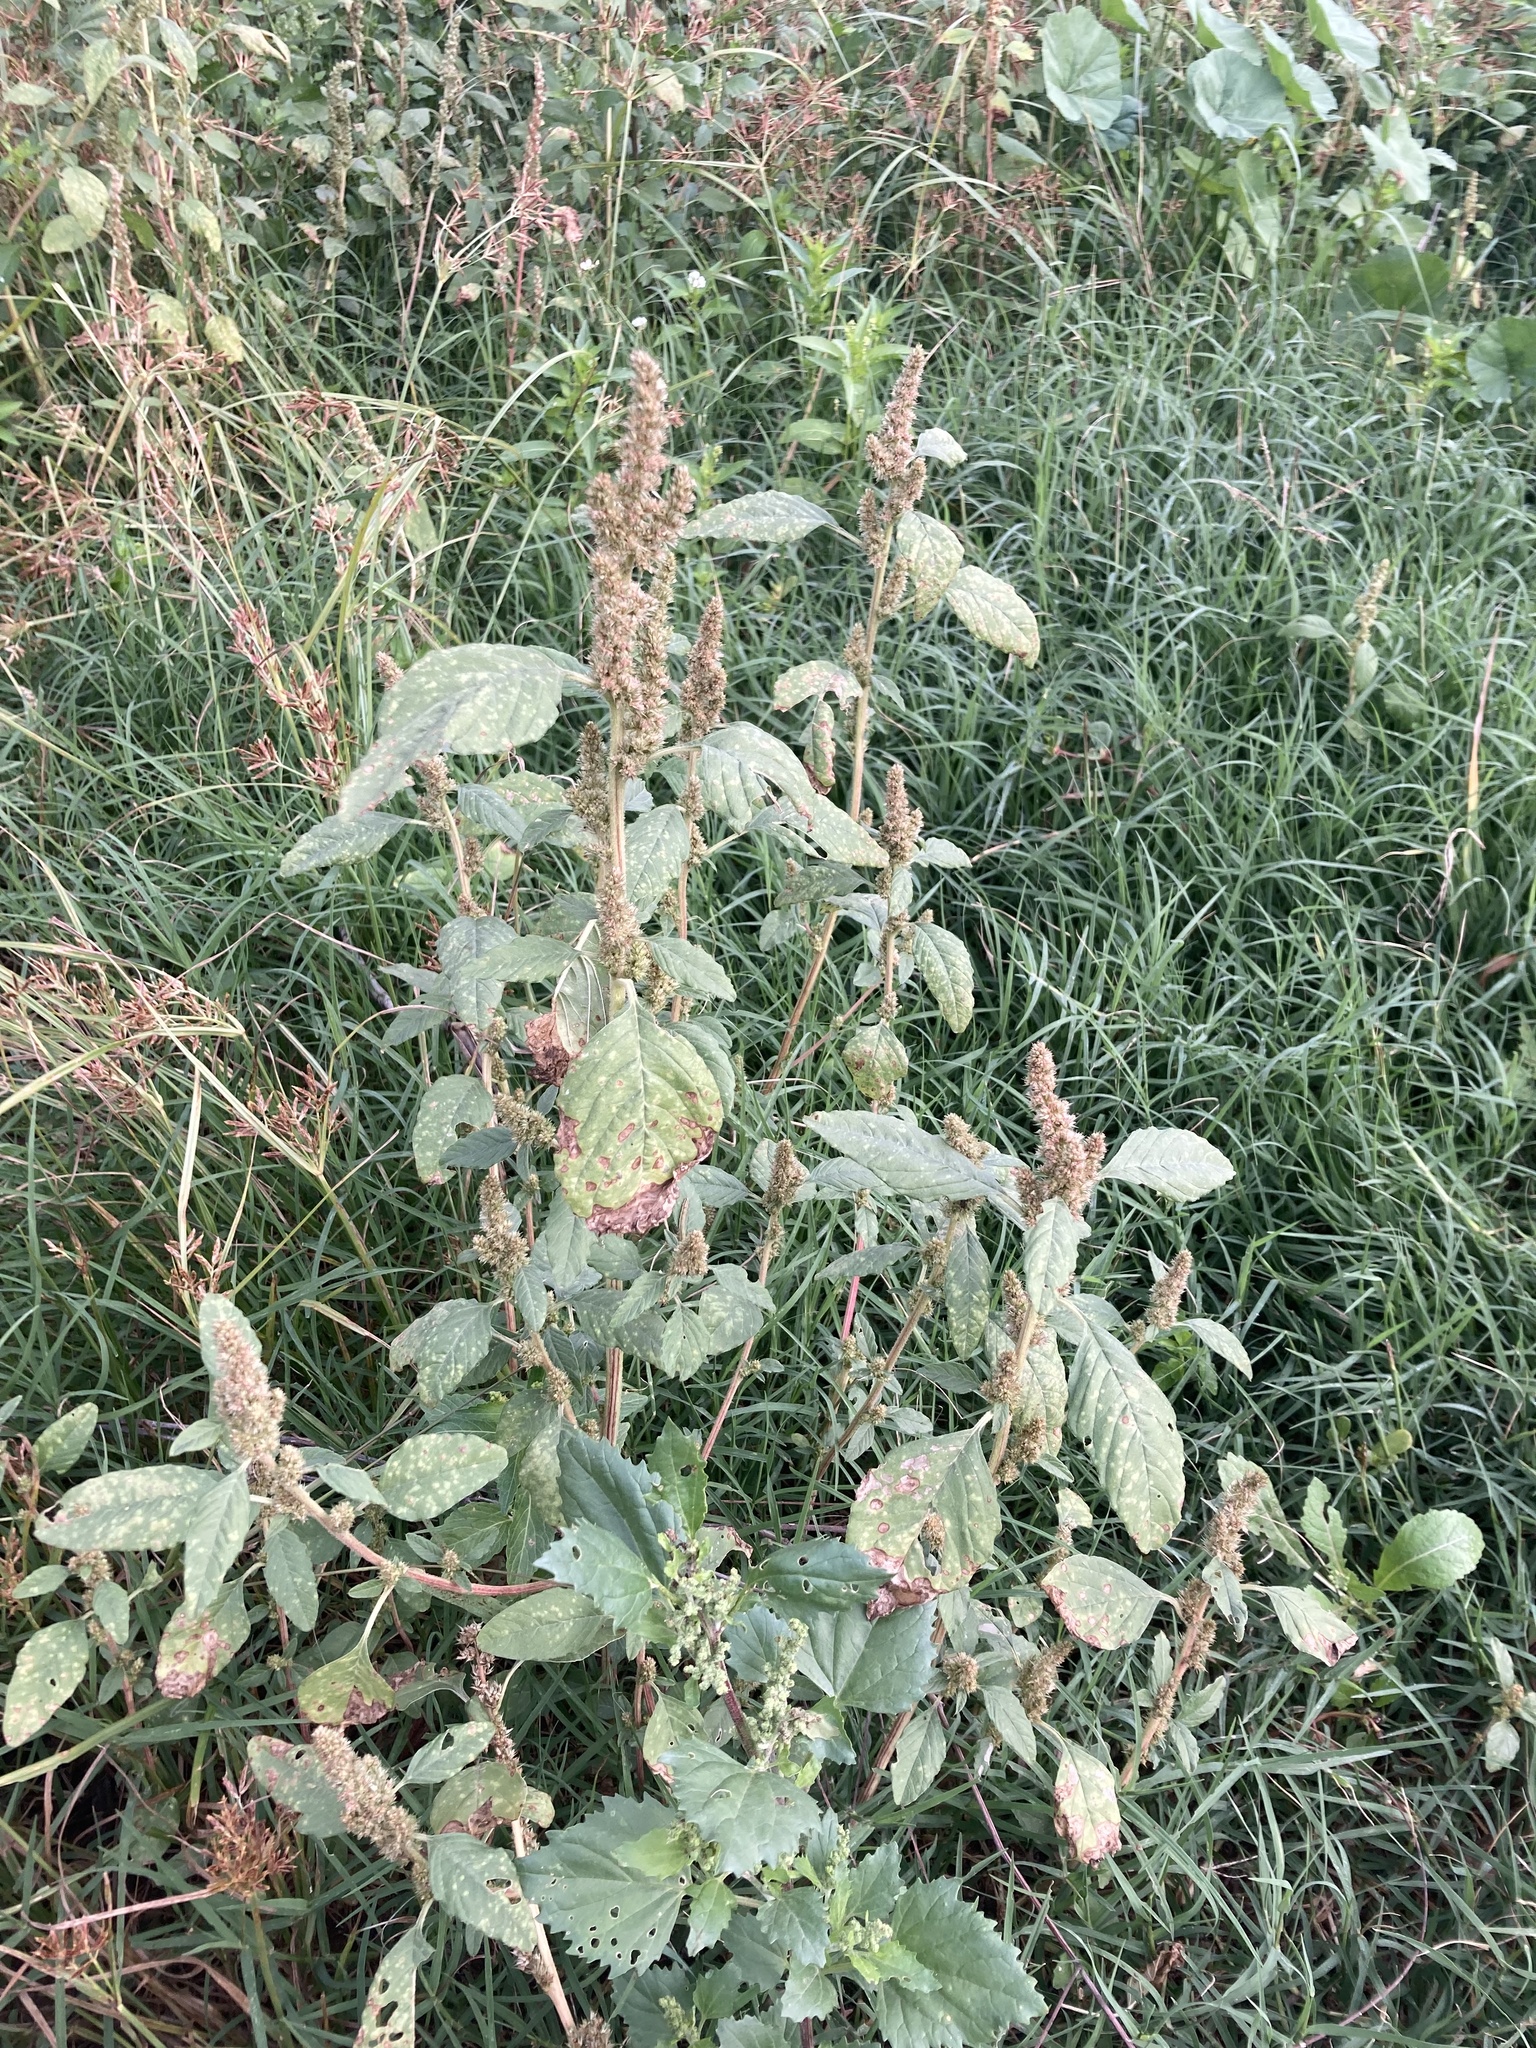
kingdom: Plantae
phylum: Tracheophyta
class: Magnoliopsida
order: Caryophyllales
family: Amaranthaceae
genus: Amaranthus
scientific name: Amaranthus retroflexus
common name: Redroot amaranth
